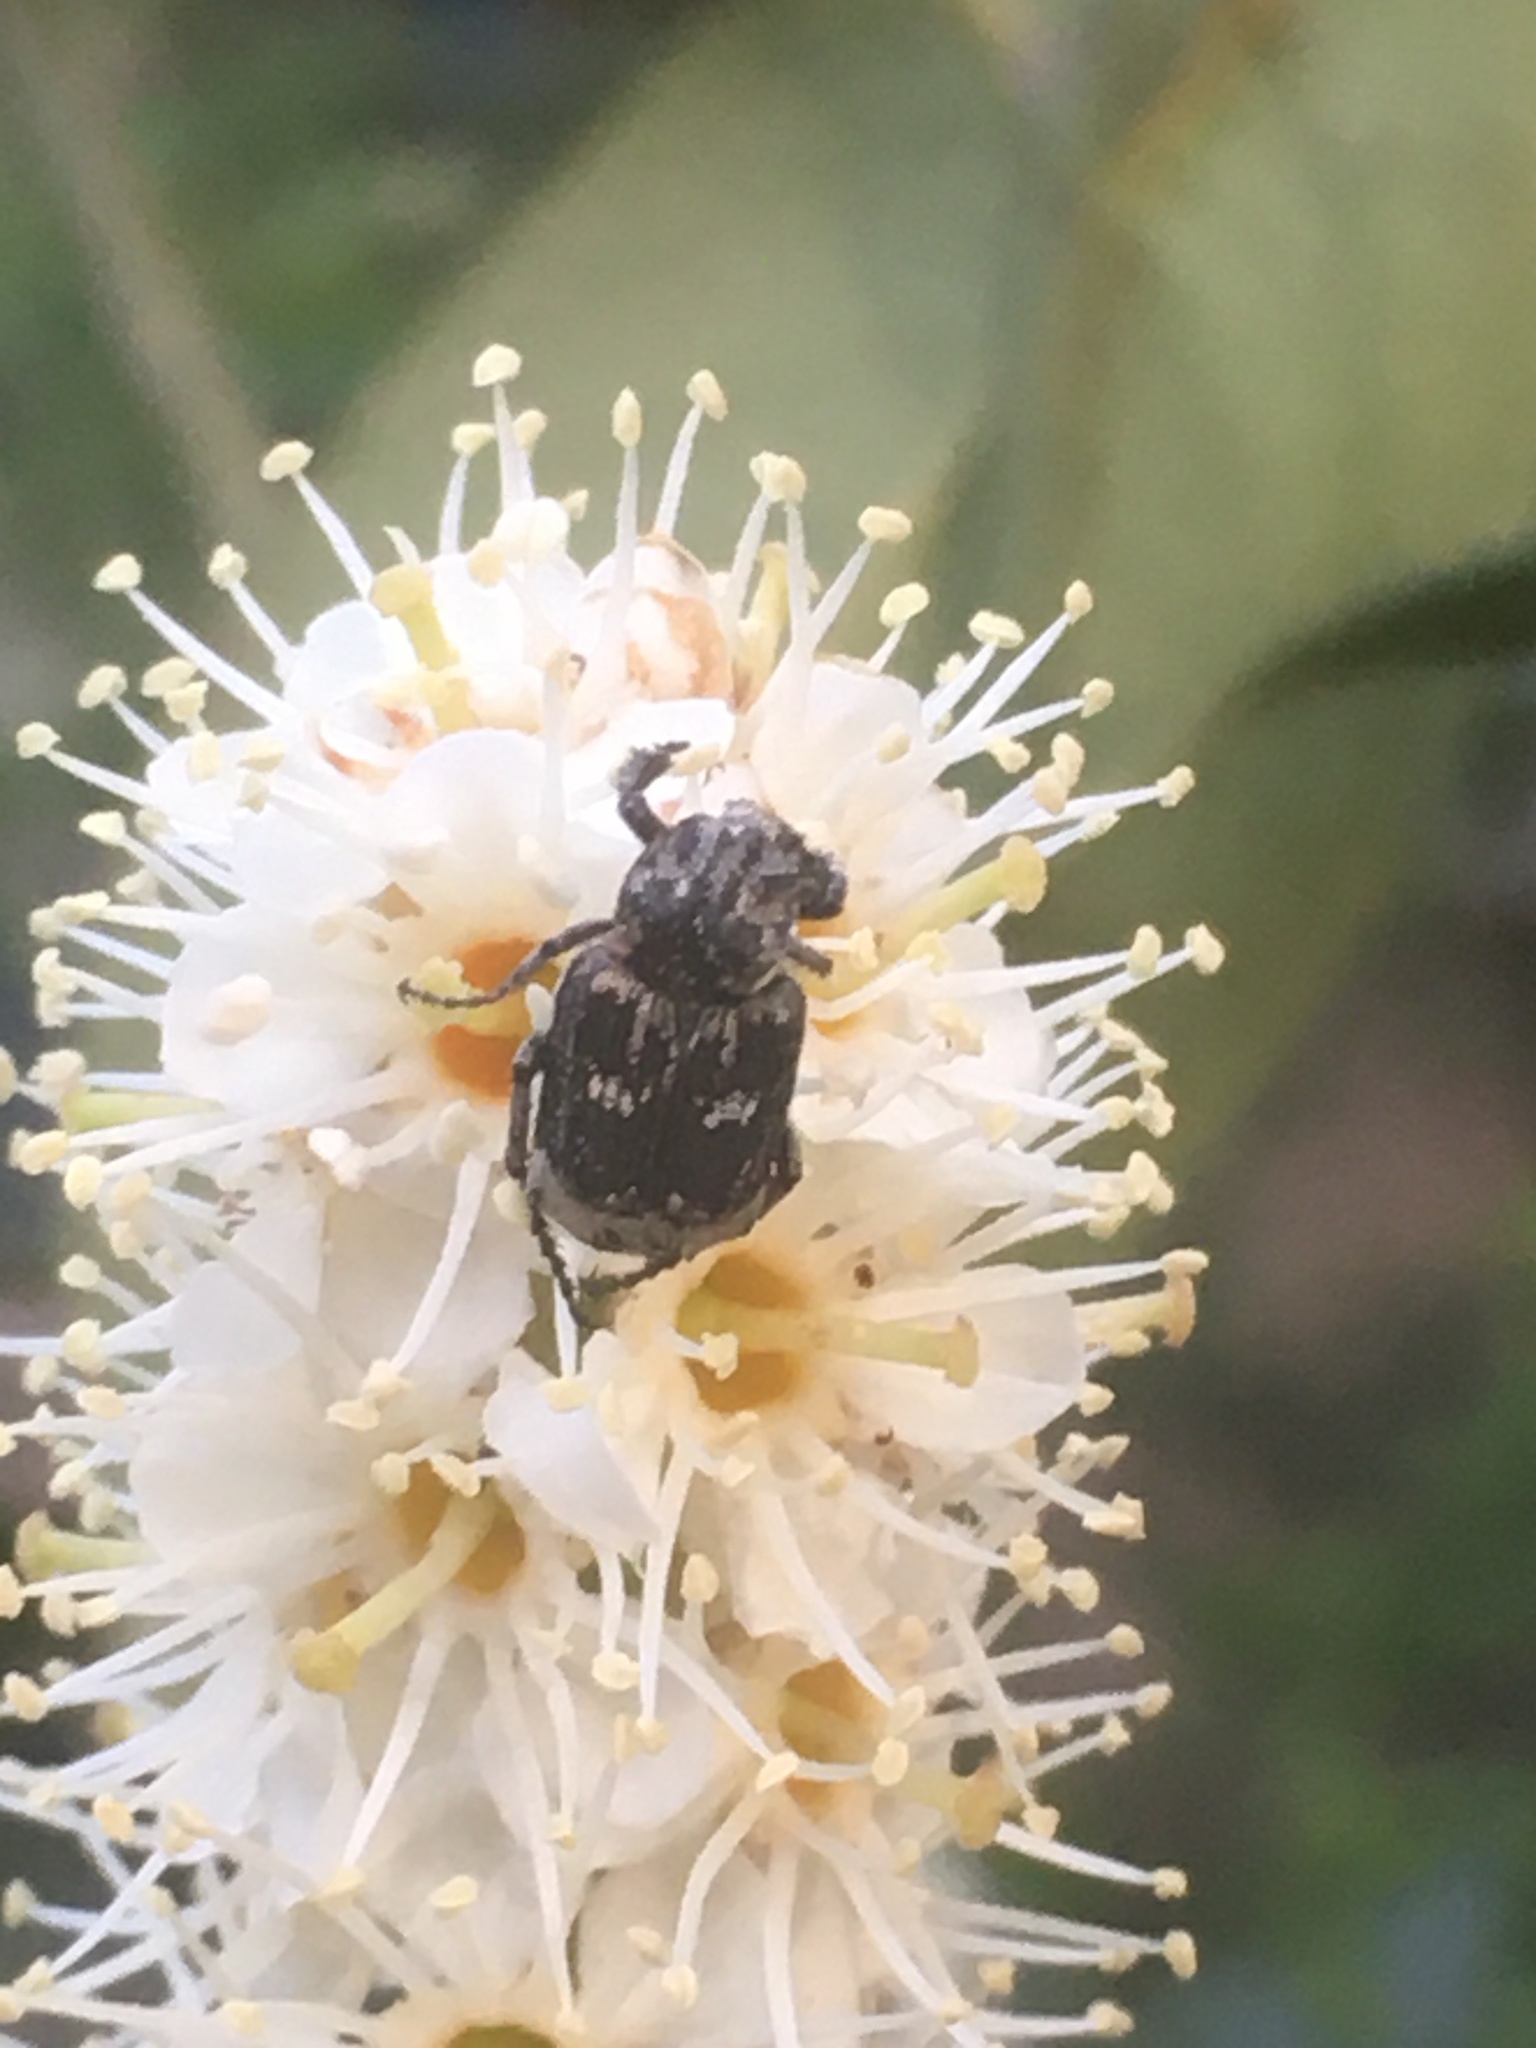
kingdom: Animalia
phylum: Arthropoda
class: Insecta
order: Coleoptera
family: Scarabaeidae
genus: Valgus
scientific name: Valgus hemipterus
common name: Bug flower chafer
